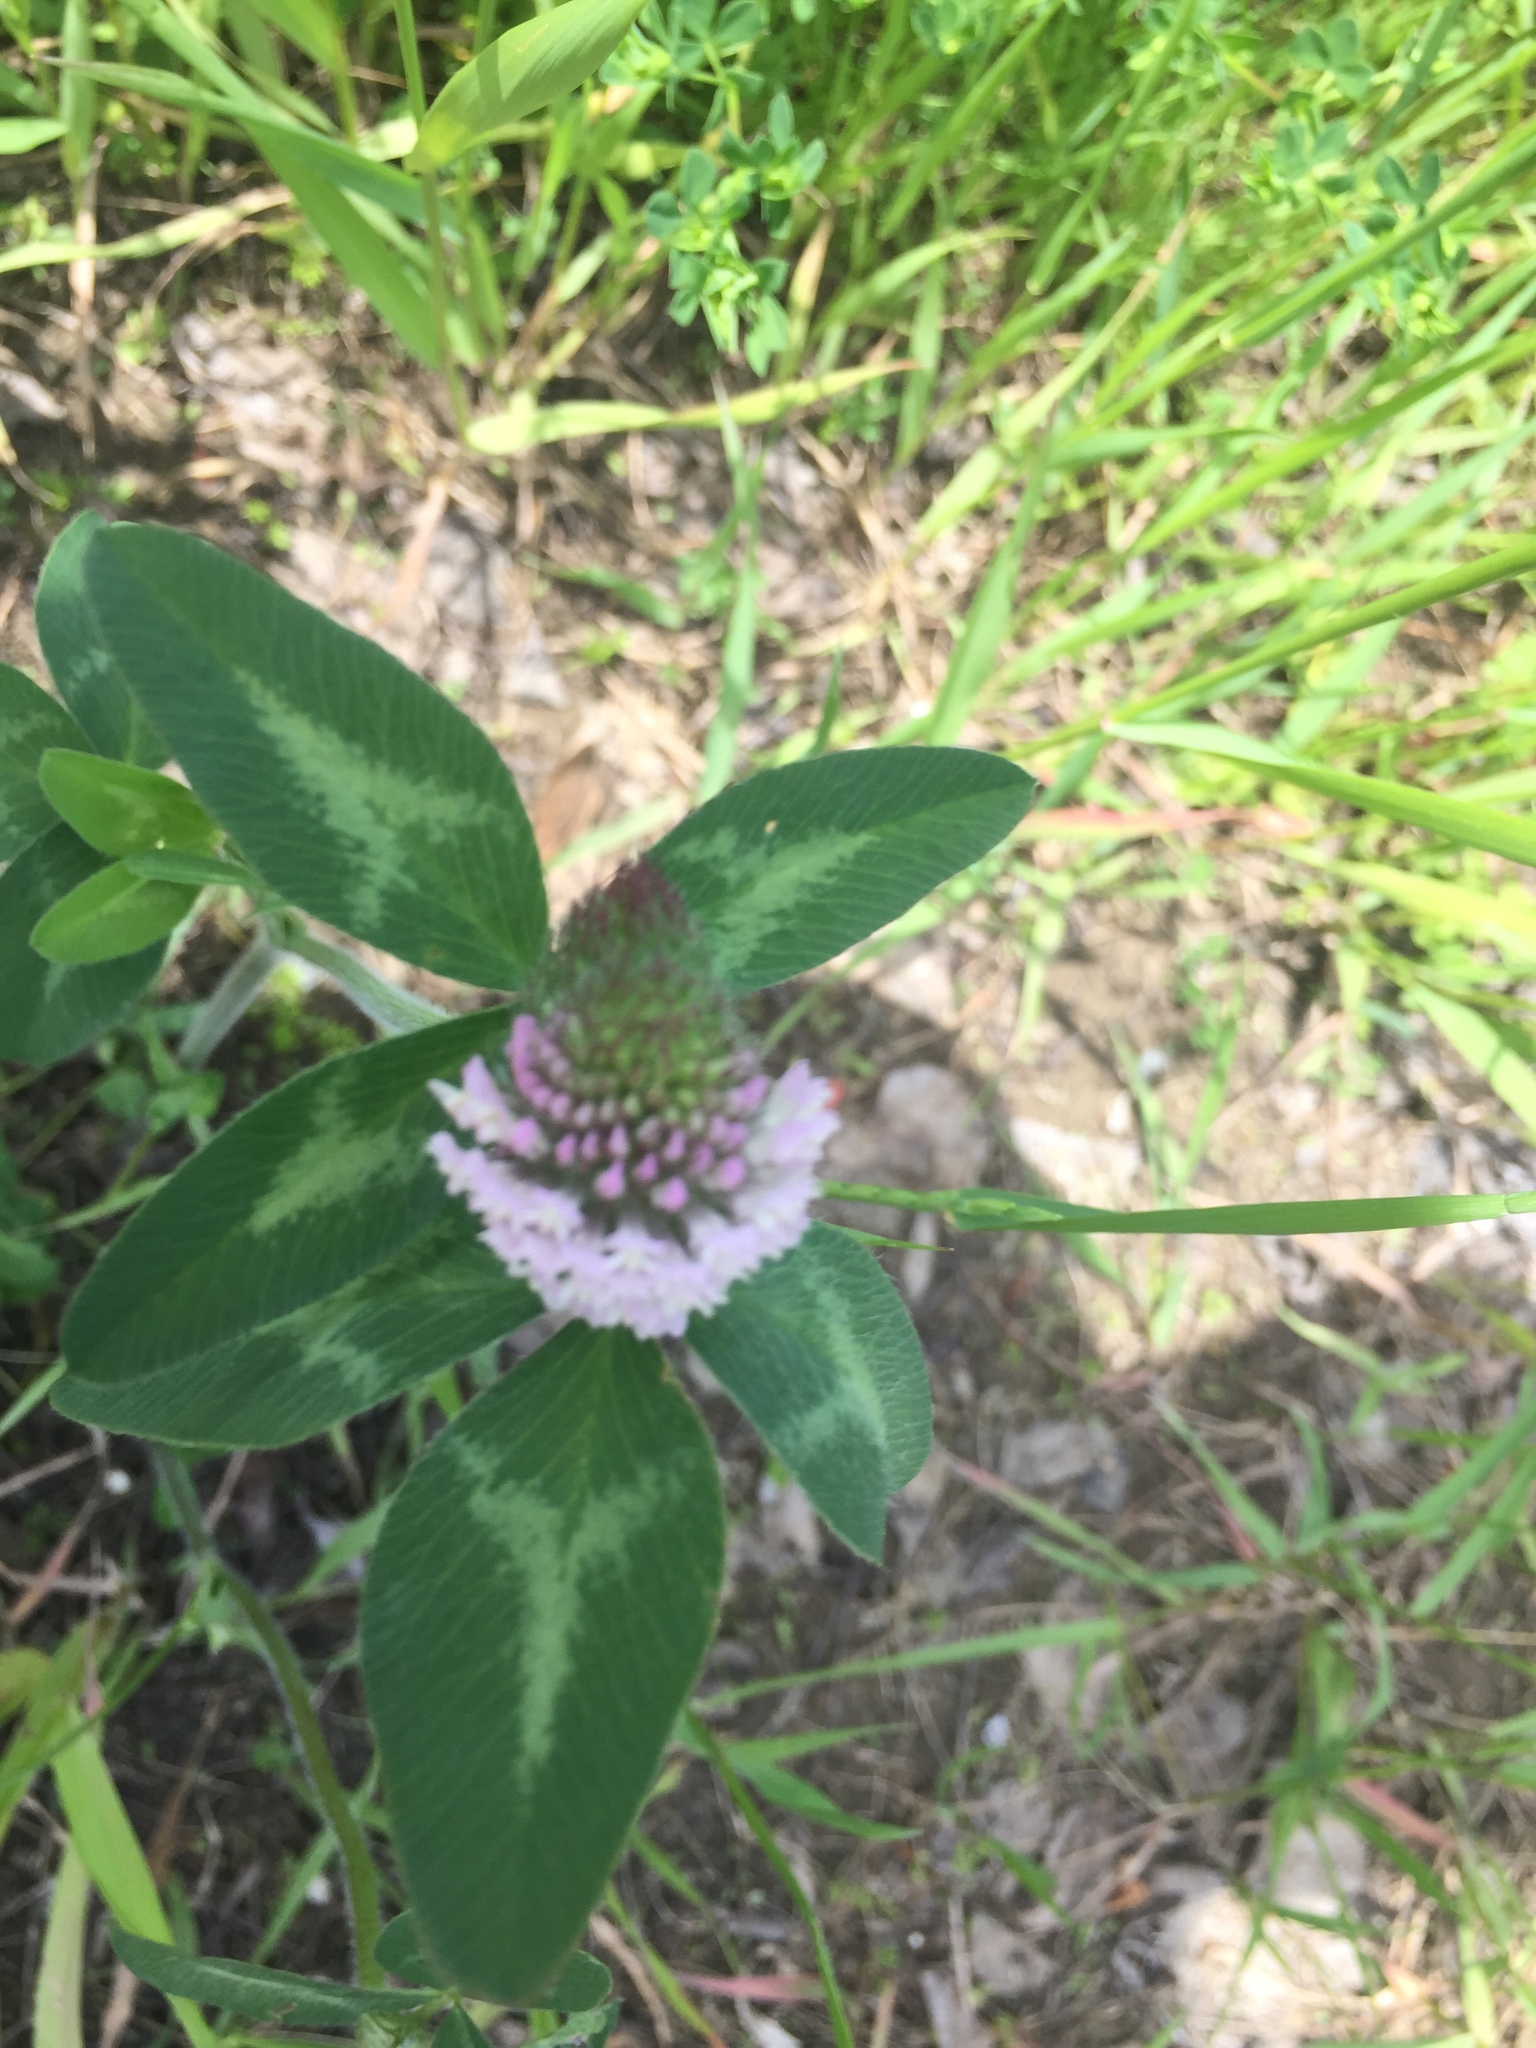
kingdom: Plantae
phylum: Tracheophyta
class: Magnoliopsida
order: Fabales
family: Fabaceae
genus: Trifolium
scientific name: Trifolium pratense
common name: Red clover
